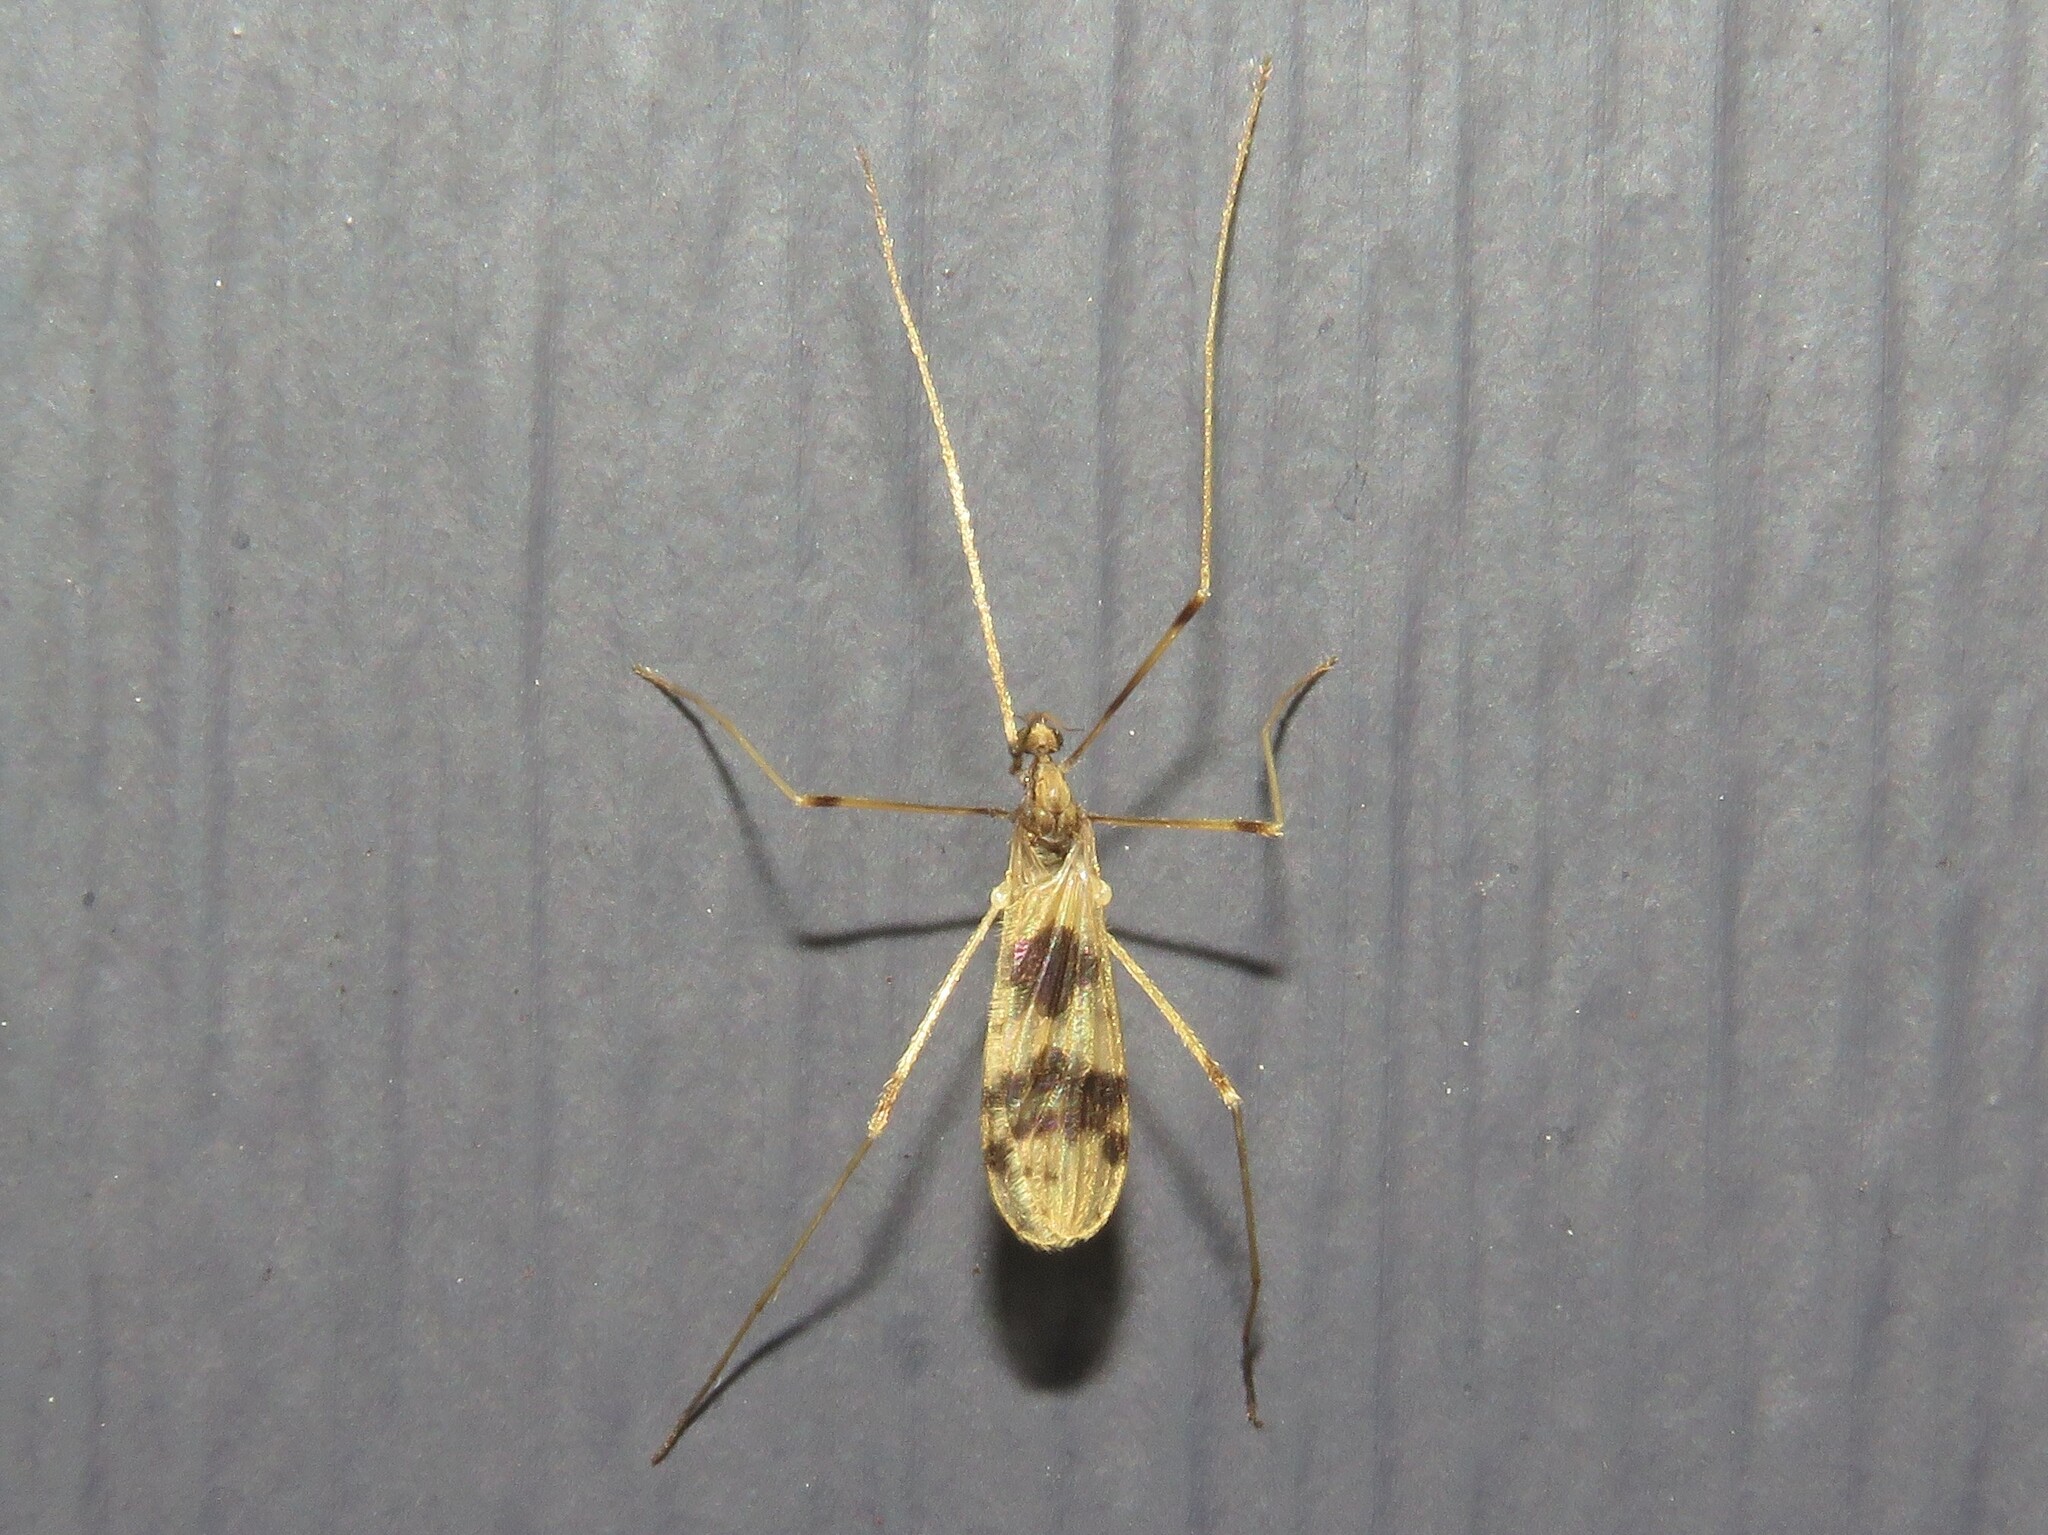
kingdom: Animalia
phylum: Arthropoda
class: Insecta
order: Diptera
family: Limoniidae
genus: Ilisia
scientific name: Ilisia venusta
